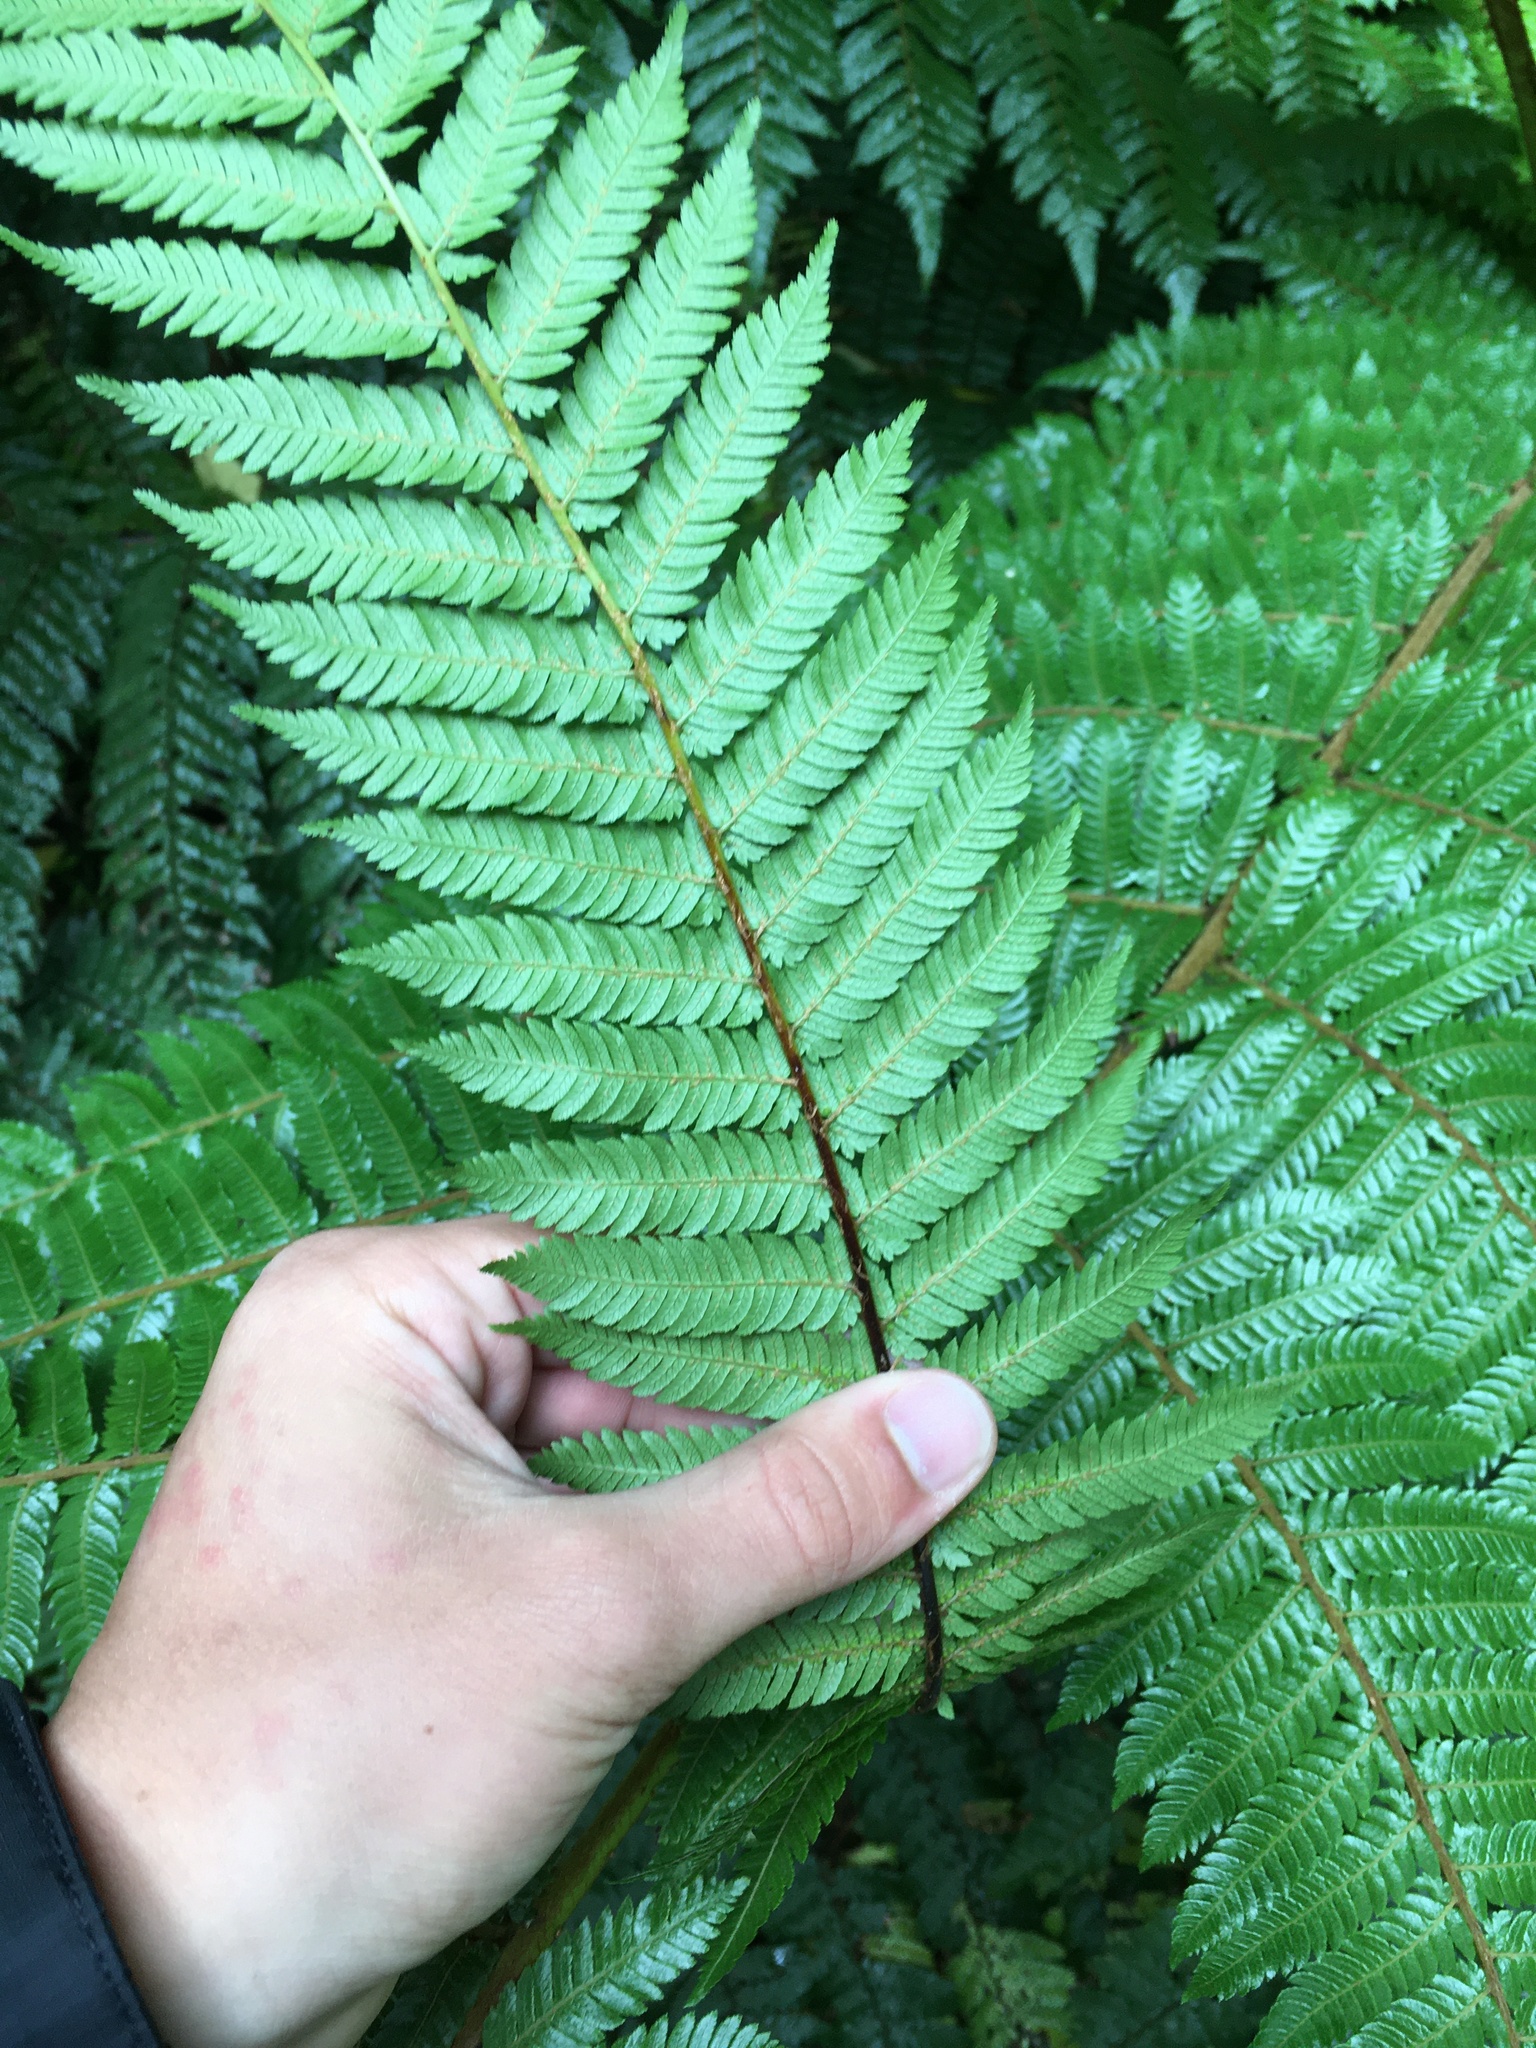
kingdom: Plantae
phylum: Tracheophyta
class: Polypodiopsida
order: Cyatheales
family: Cyatheaceae
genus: Alsophila
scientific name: Alsophila smithii
